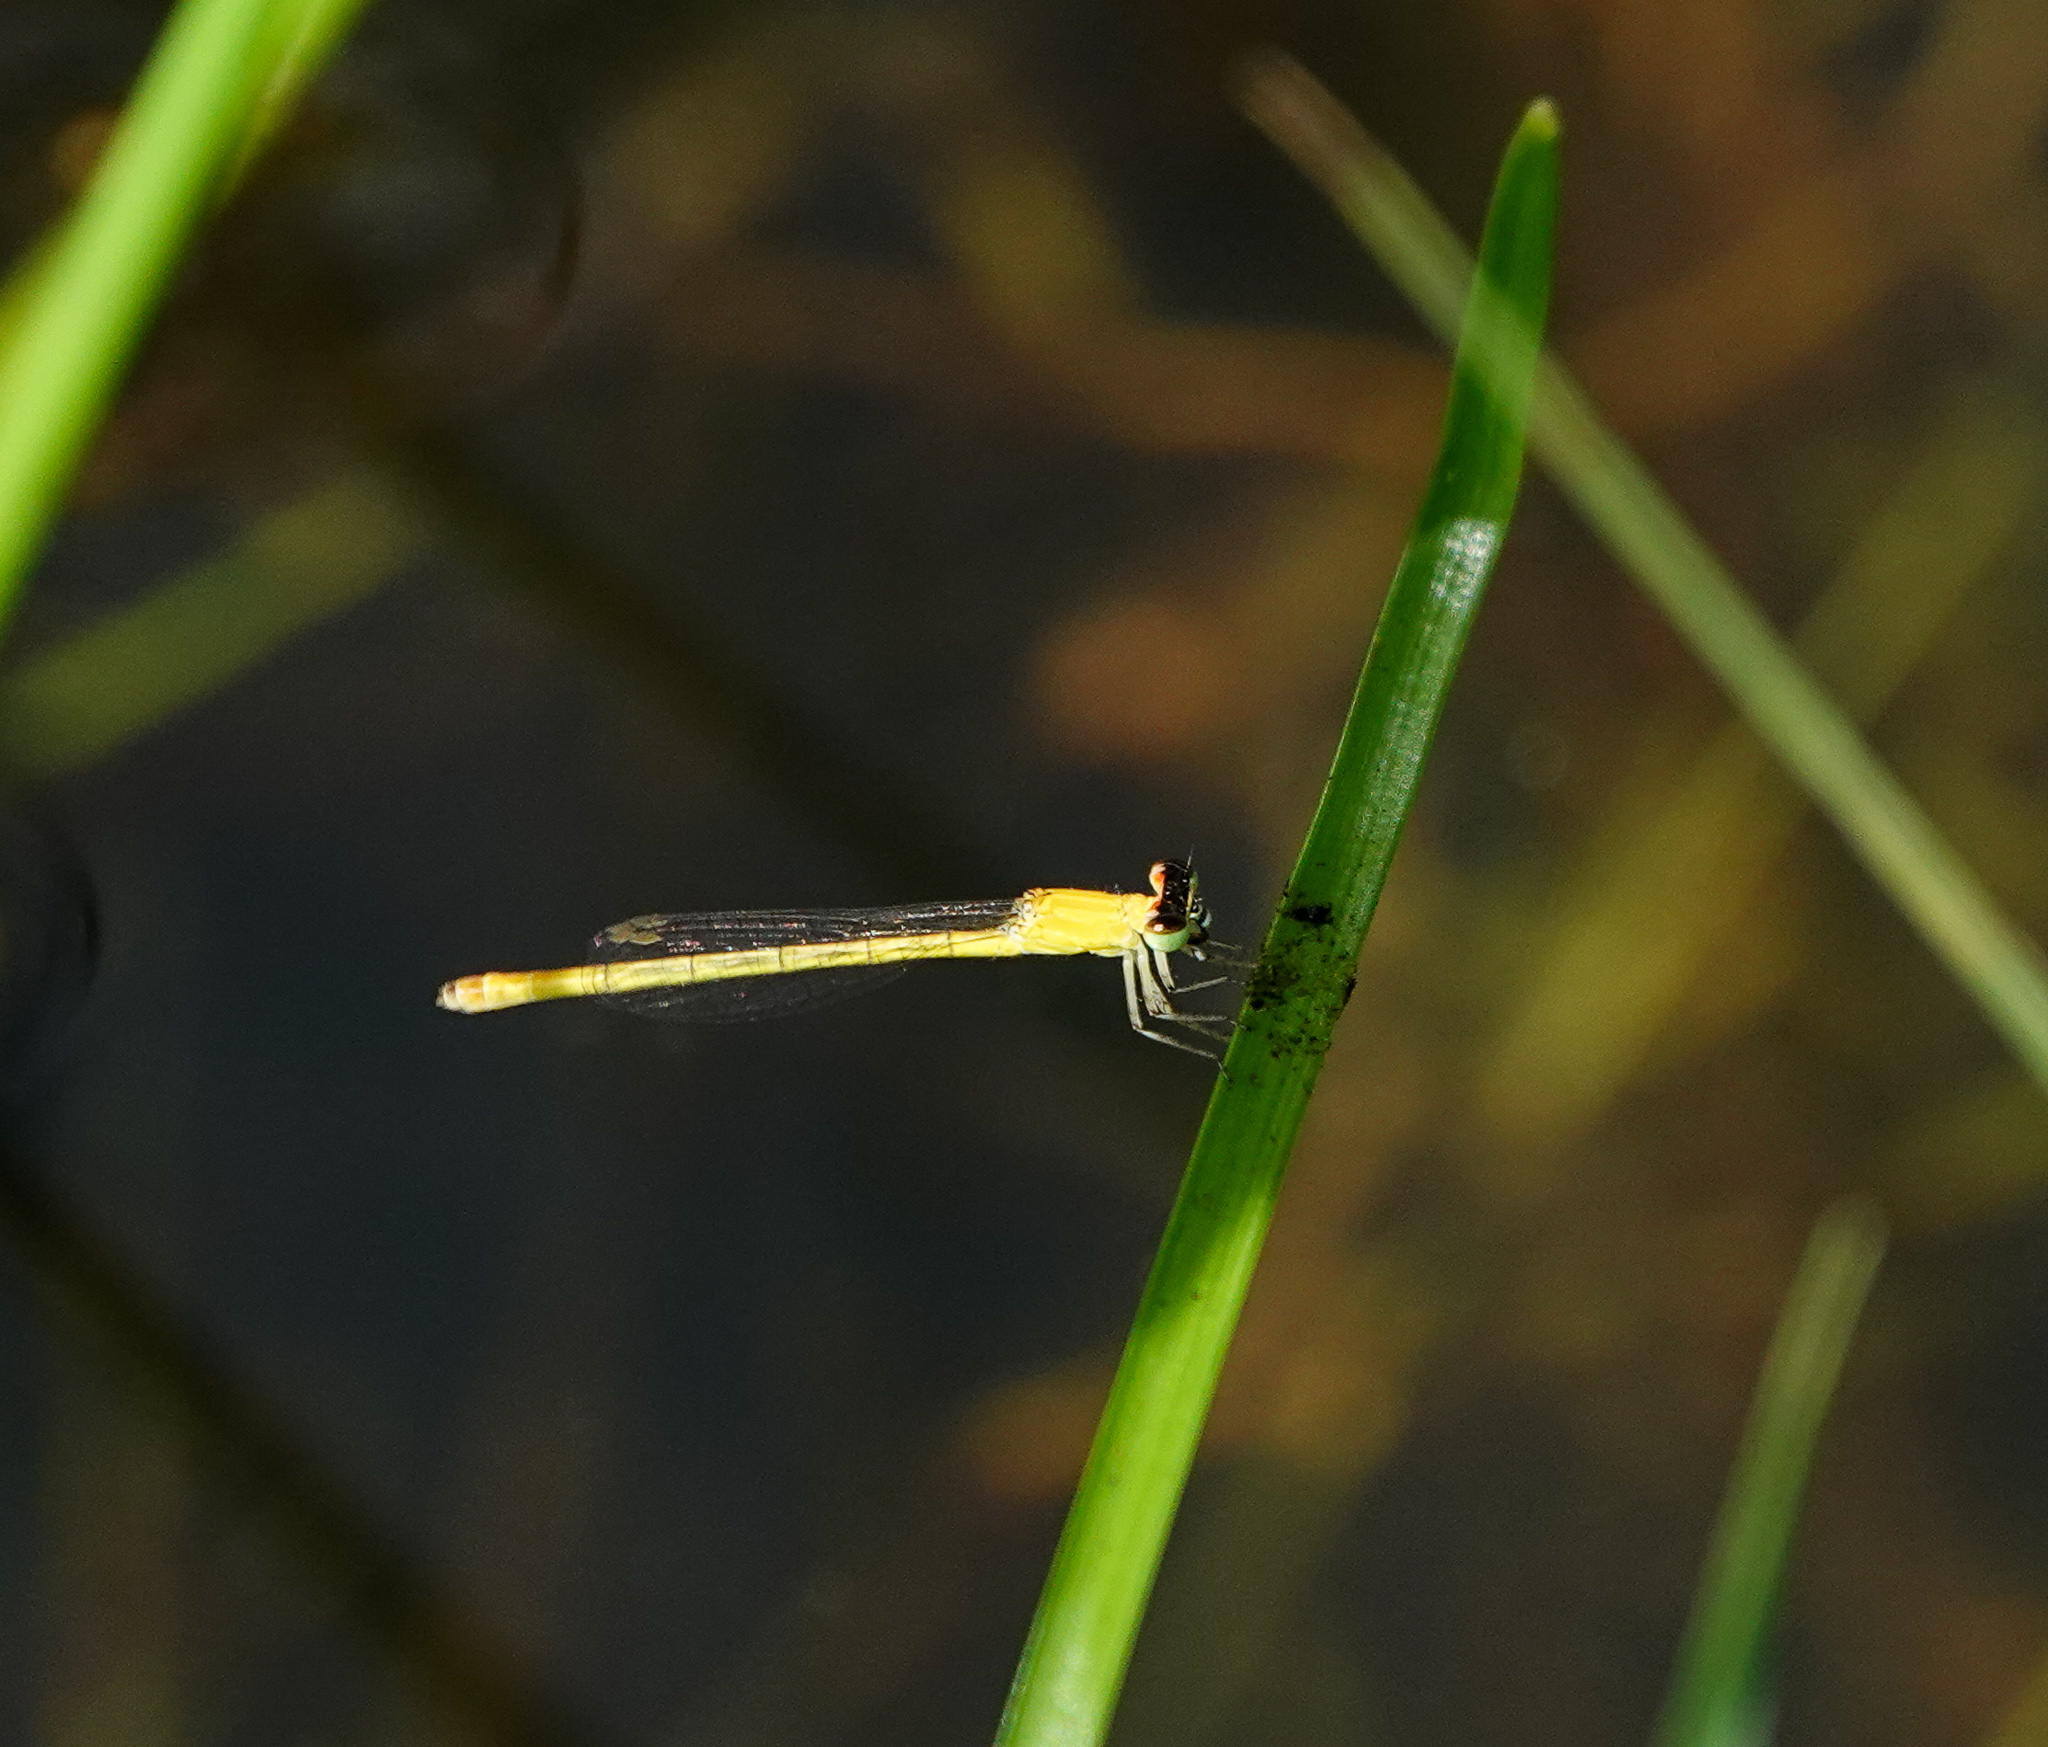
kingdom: Animalia
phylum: Arthropoda
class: Insecta
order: Odonata
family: Coenagrionidae
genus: Agriocnemis
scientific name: Agriocnemis kalinga
